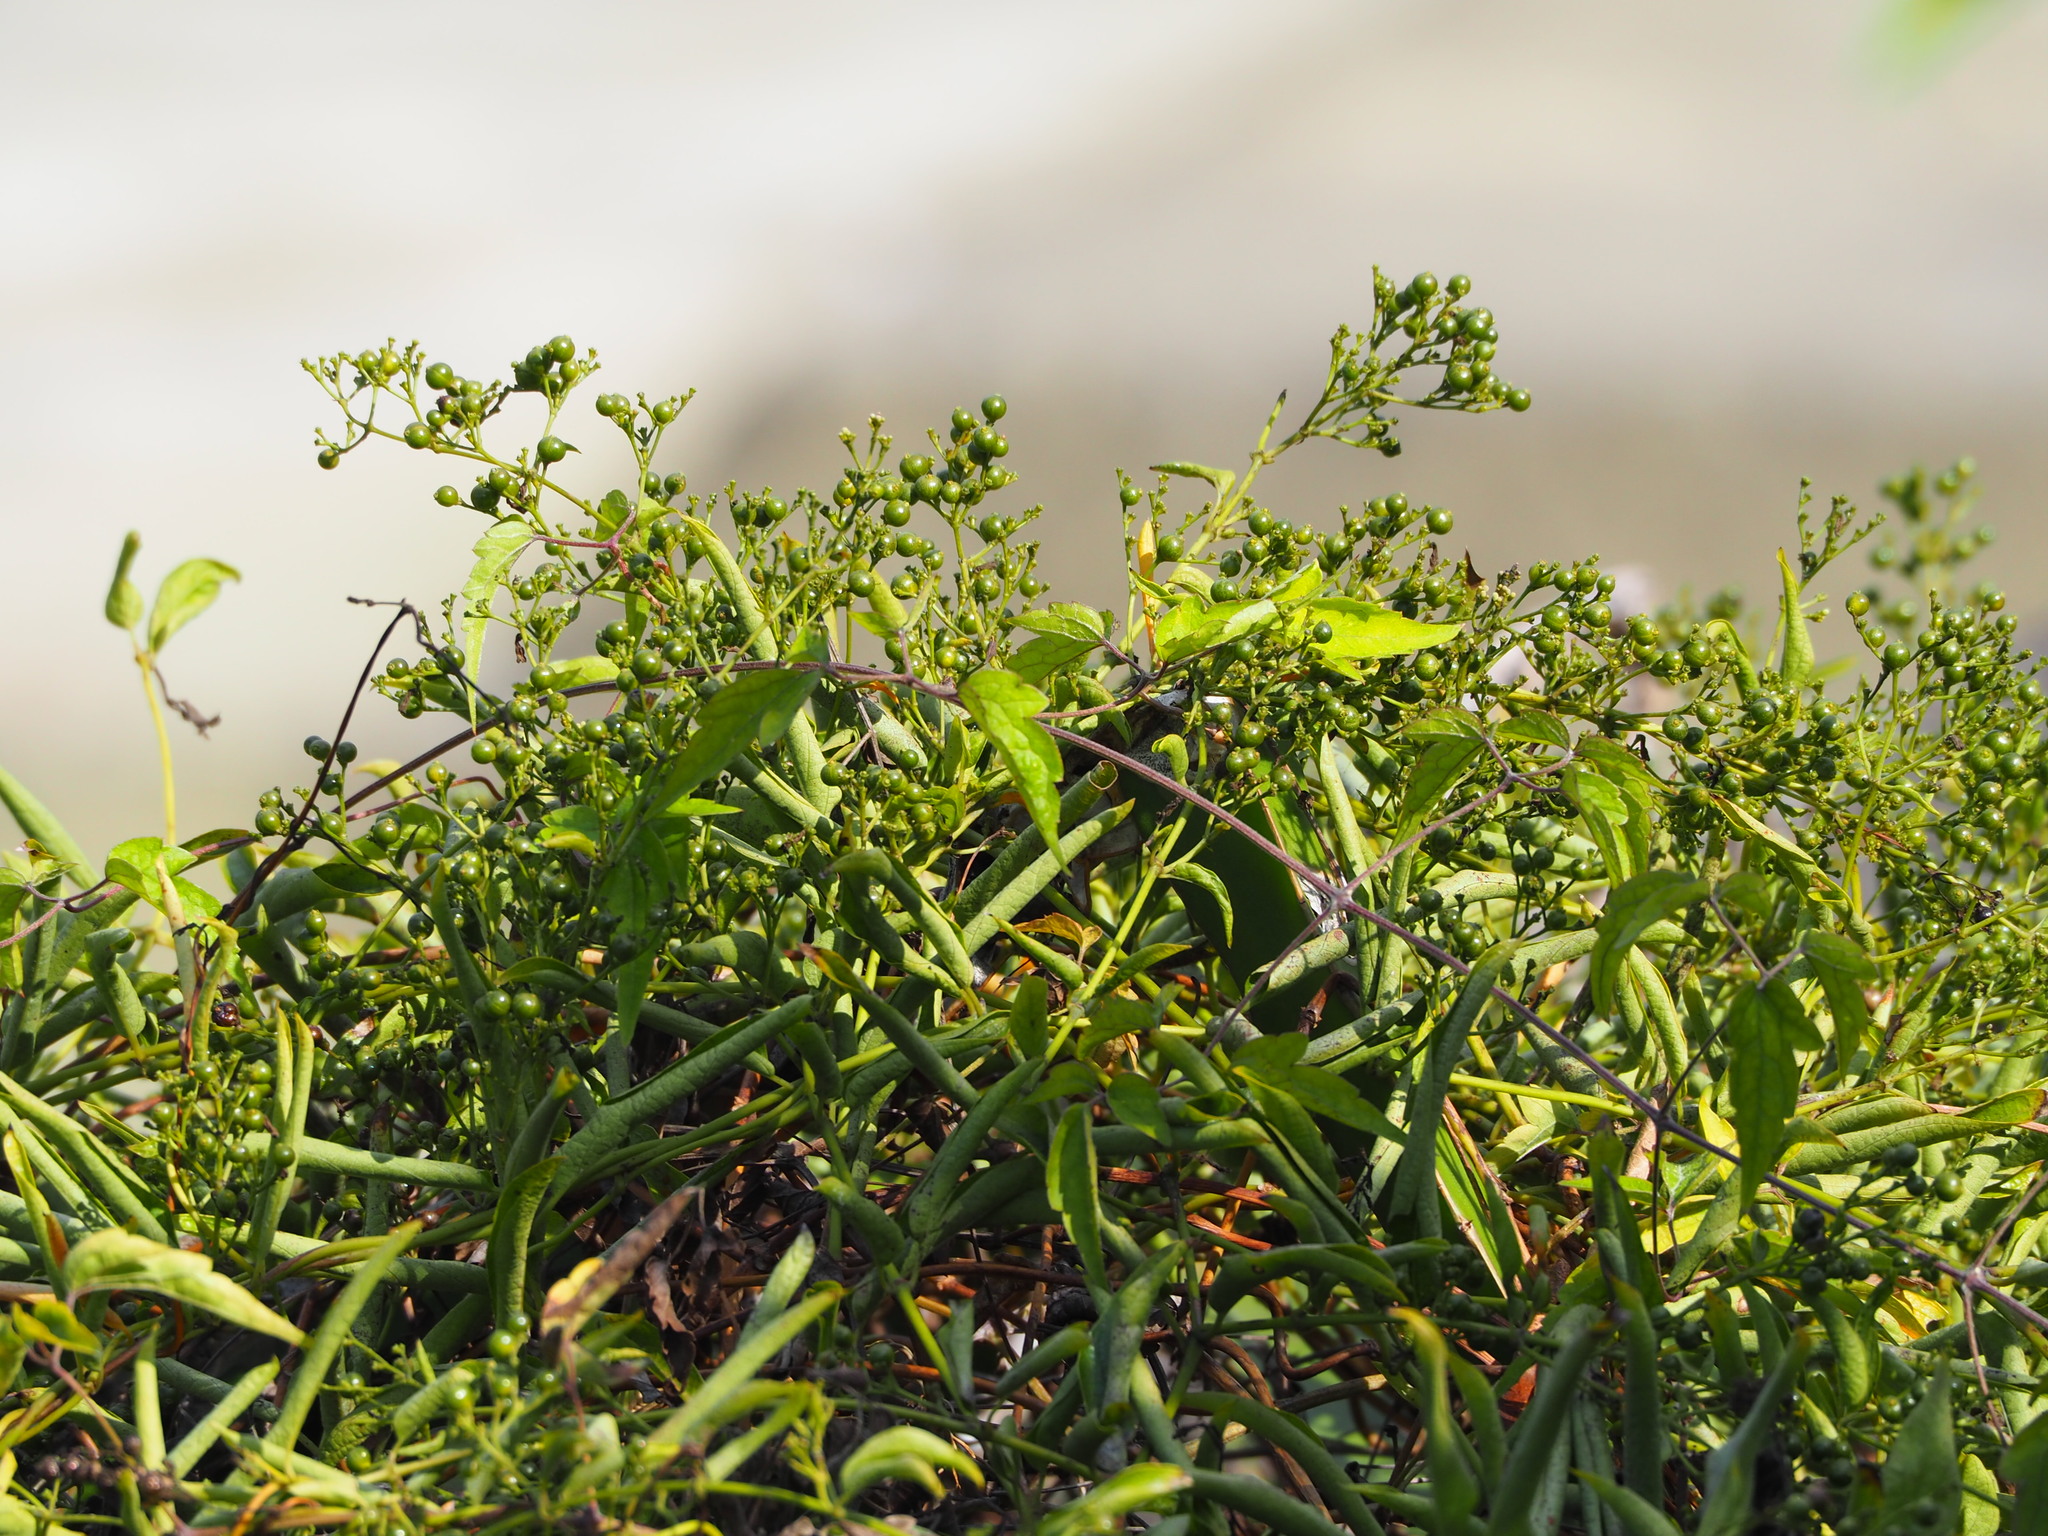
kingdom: Plantae
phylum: Tracheophyta
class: Magnoliopsida
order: Gentianales
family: Rubiaceae
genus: Paederia
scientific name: Paederia foetida
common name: Stinkvine
